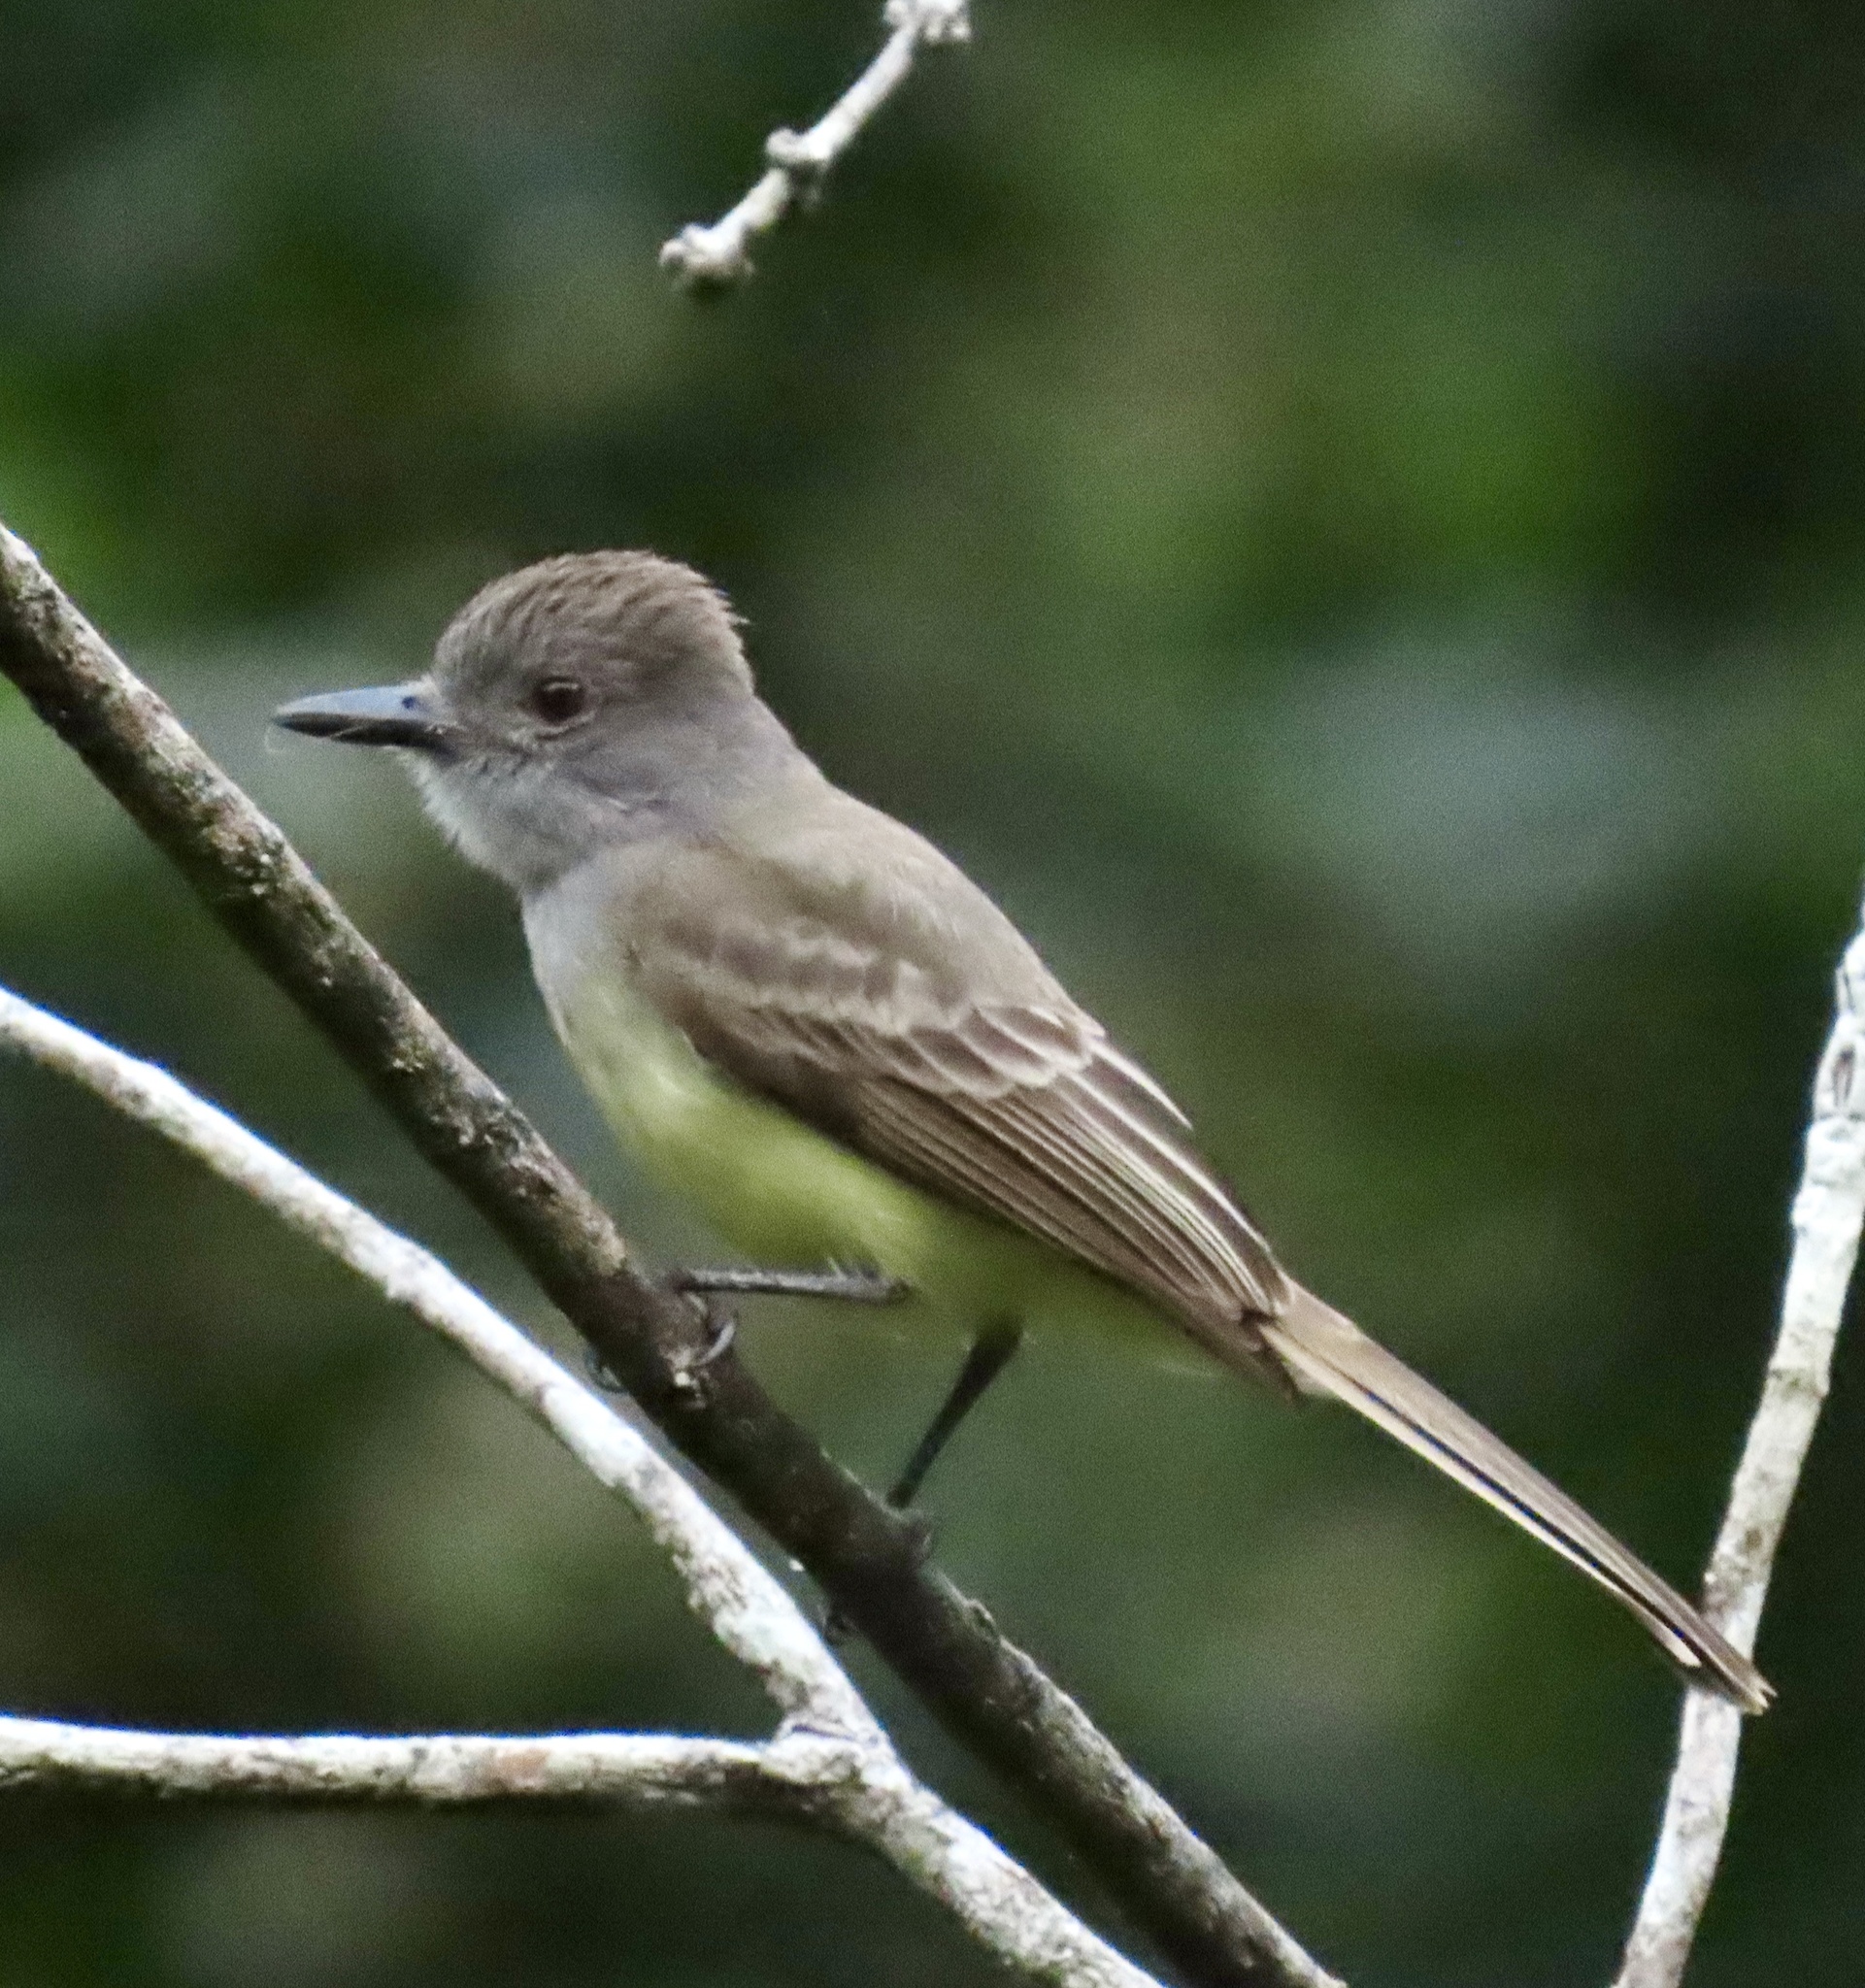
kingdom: Animalia
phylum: Chordata
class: Aves
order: Passeriformes
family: Tyrannidae
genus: Myiarchus
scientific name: Myiarchus panamensis
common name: Panama flycatcher
